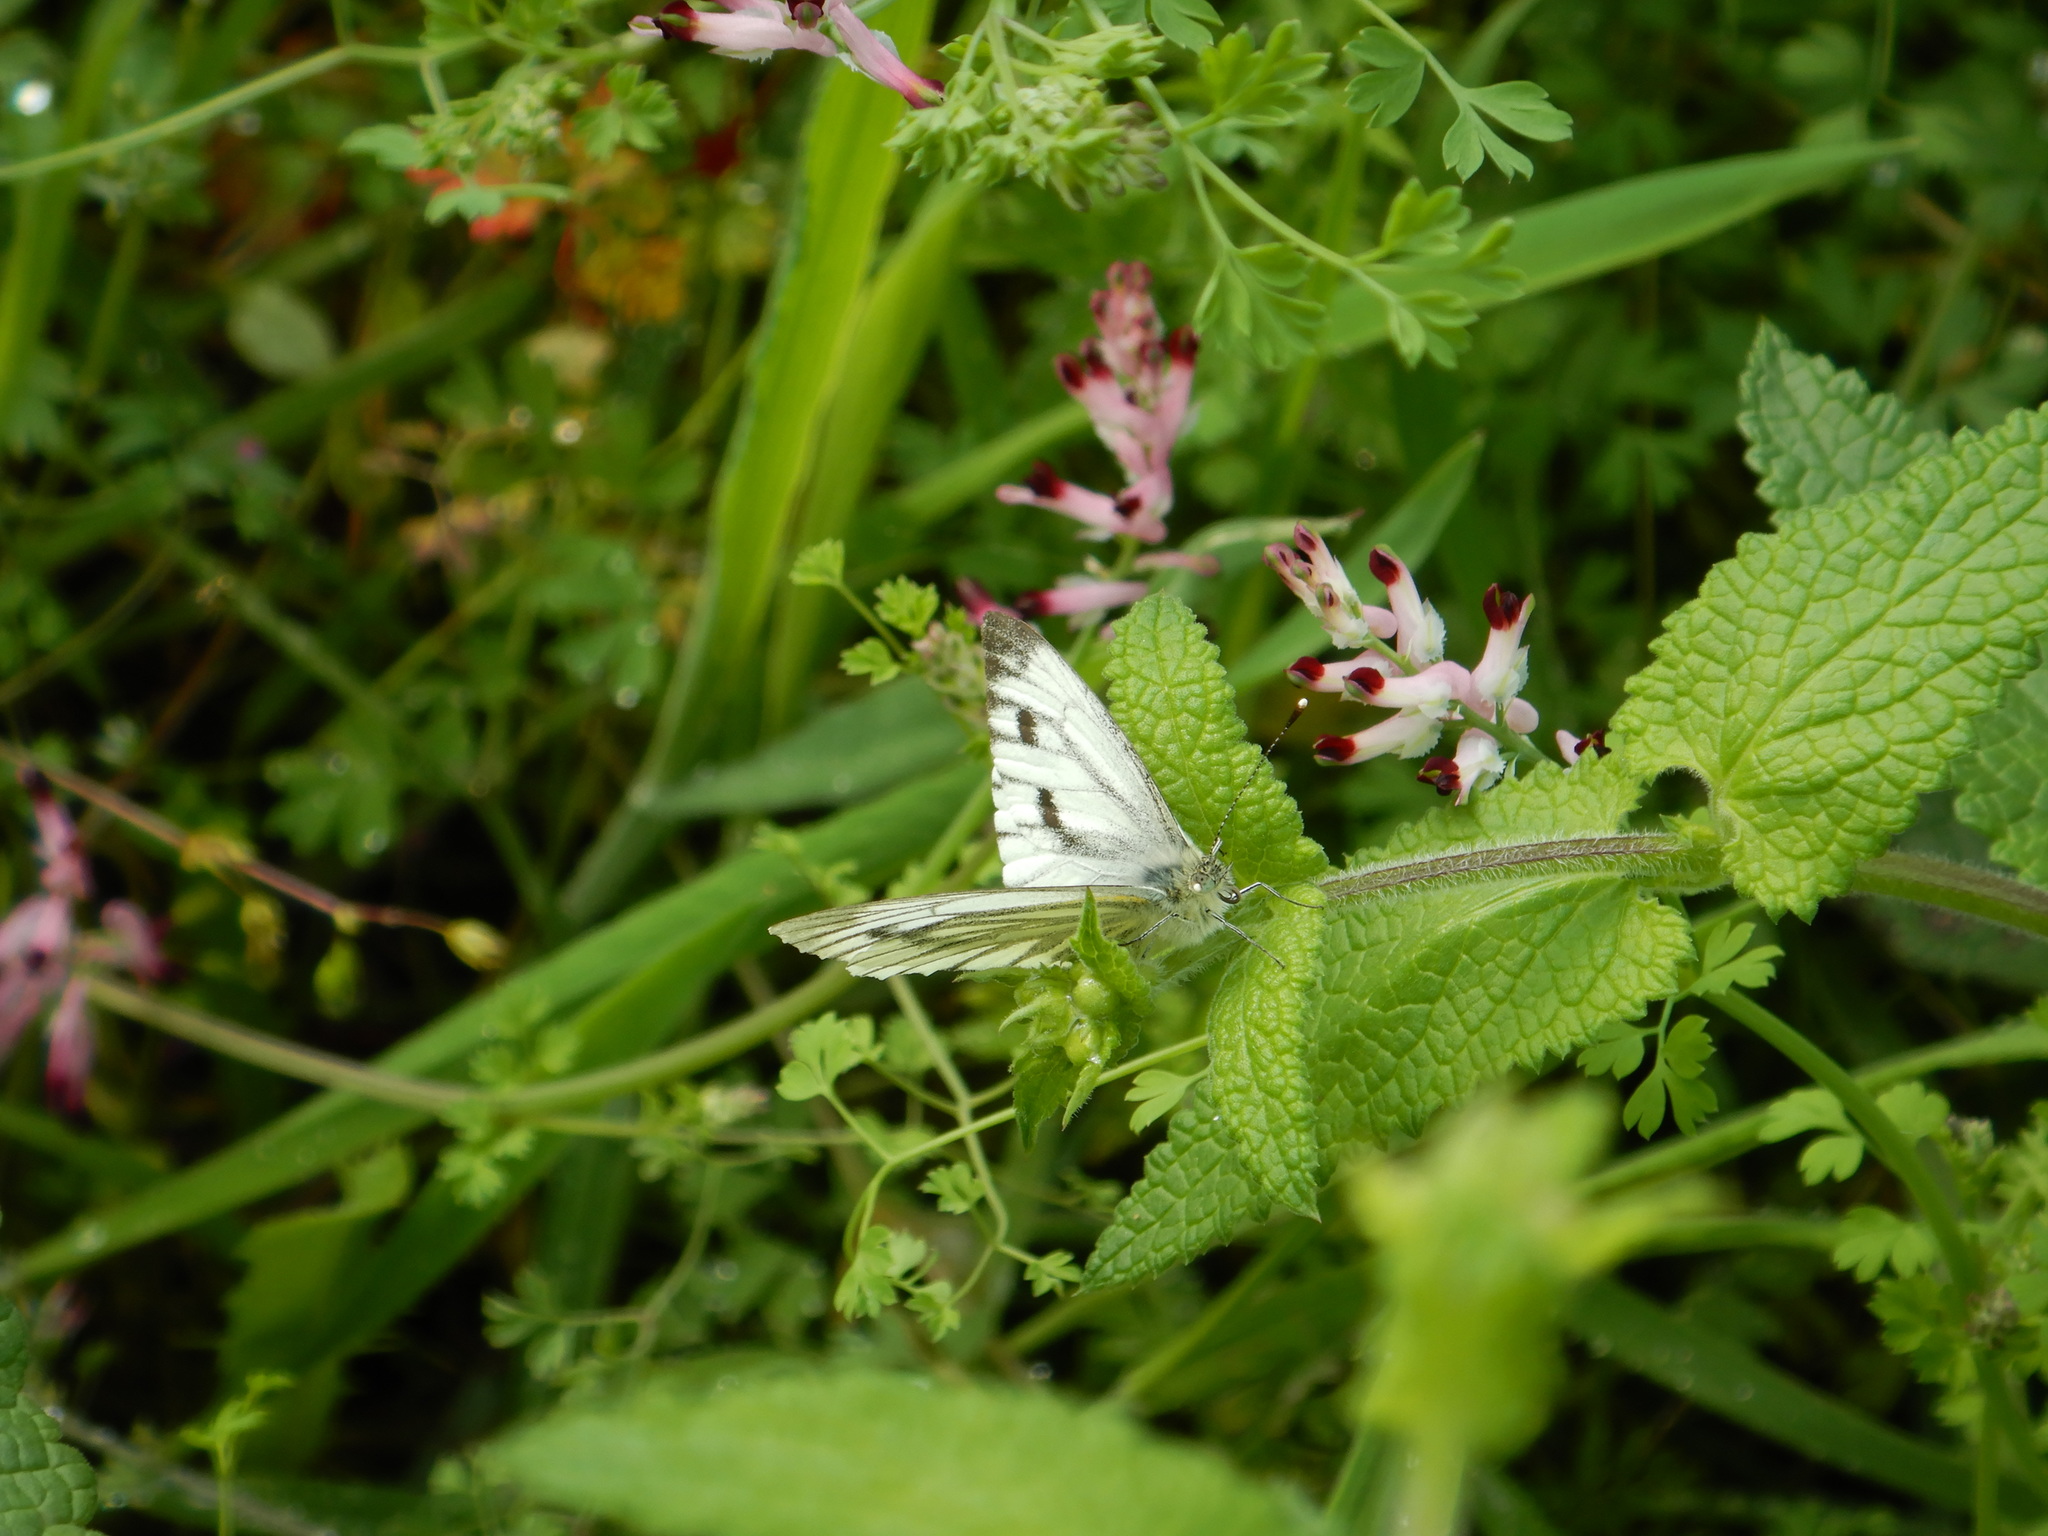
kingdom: Animalia
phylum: Arthropoda
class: Insecta
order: Lepidoptera
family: Pieridae
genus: Pieris
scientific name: Pieris napi
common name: Green-veined white
